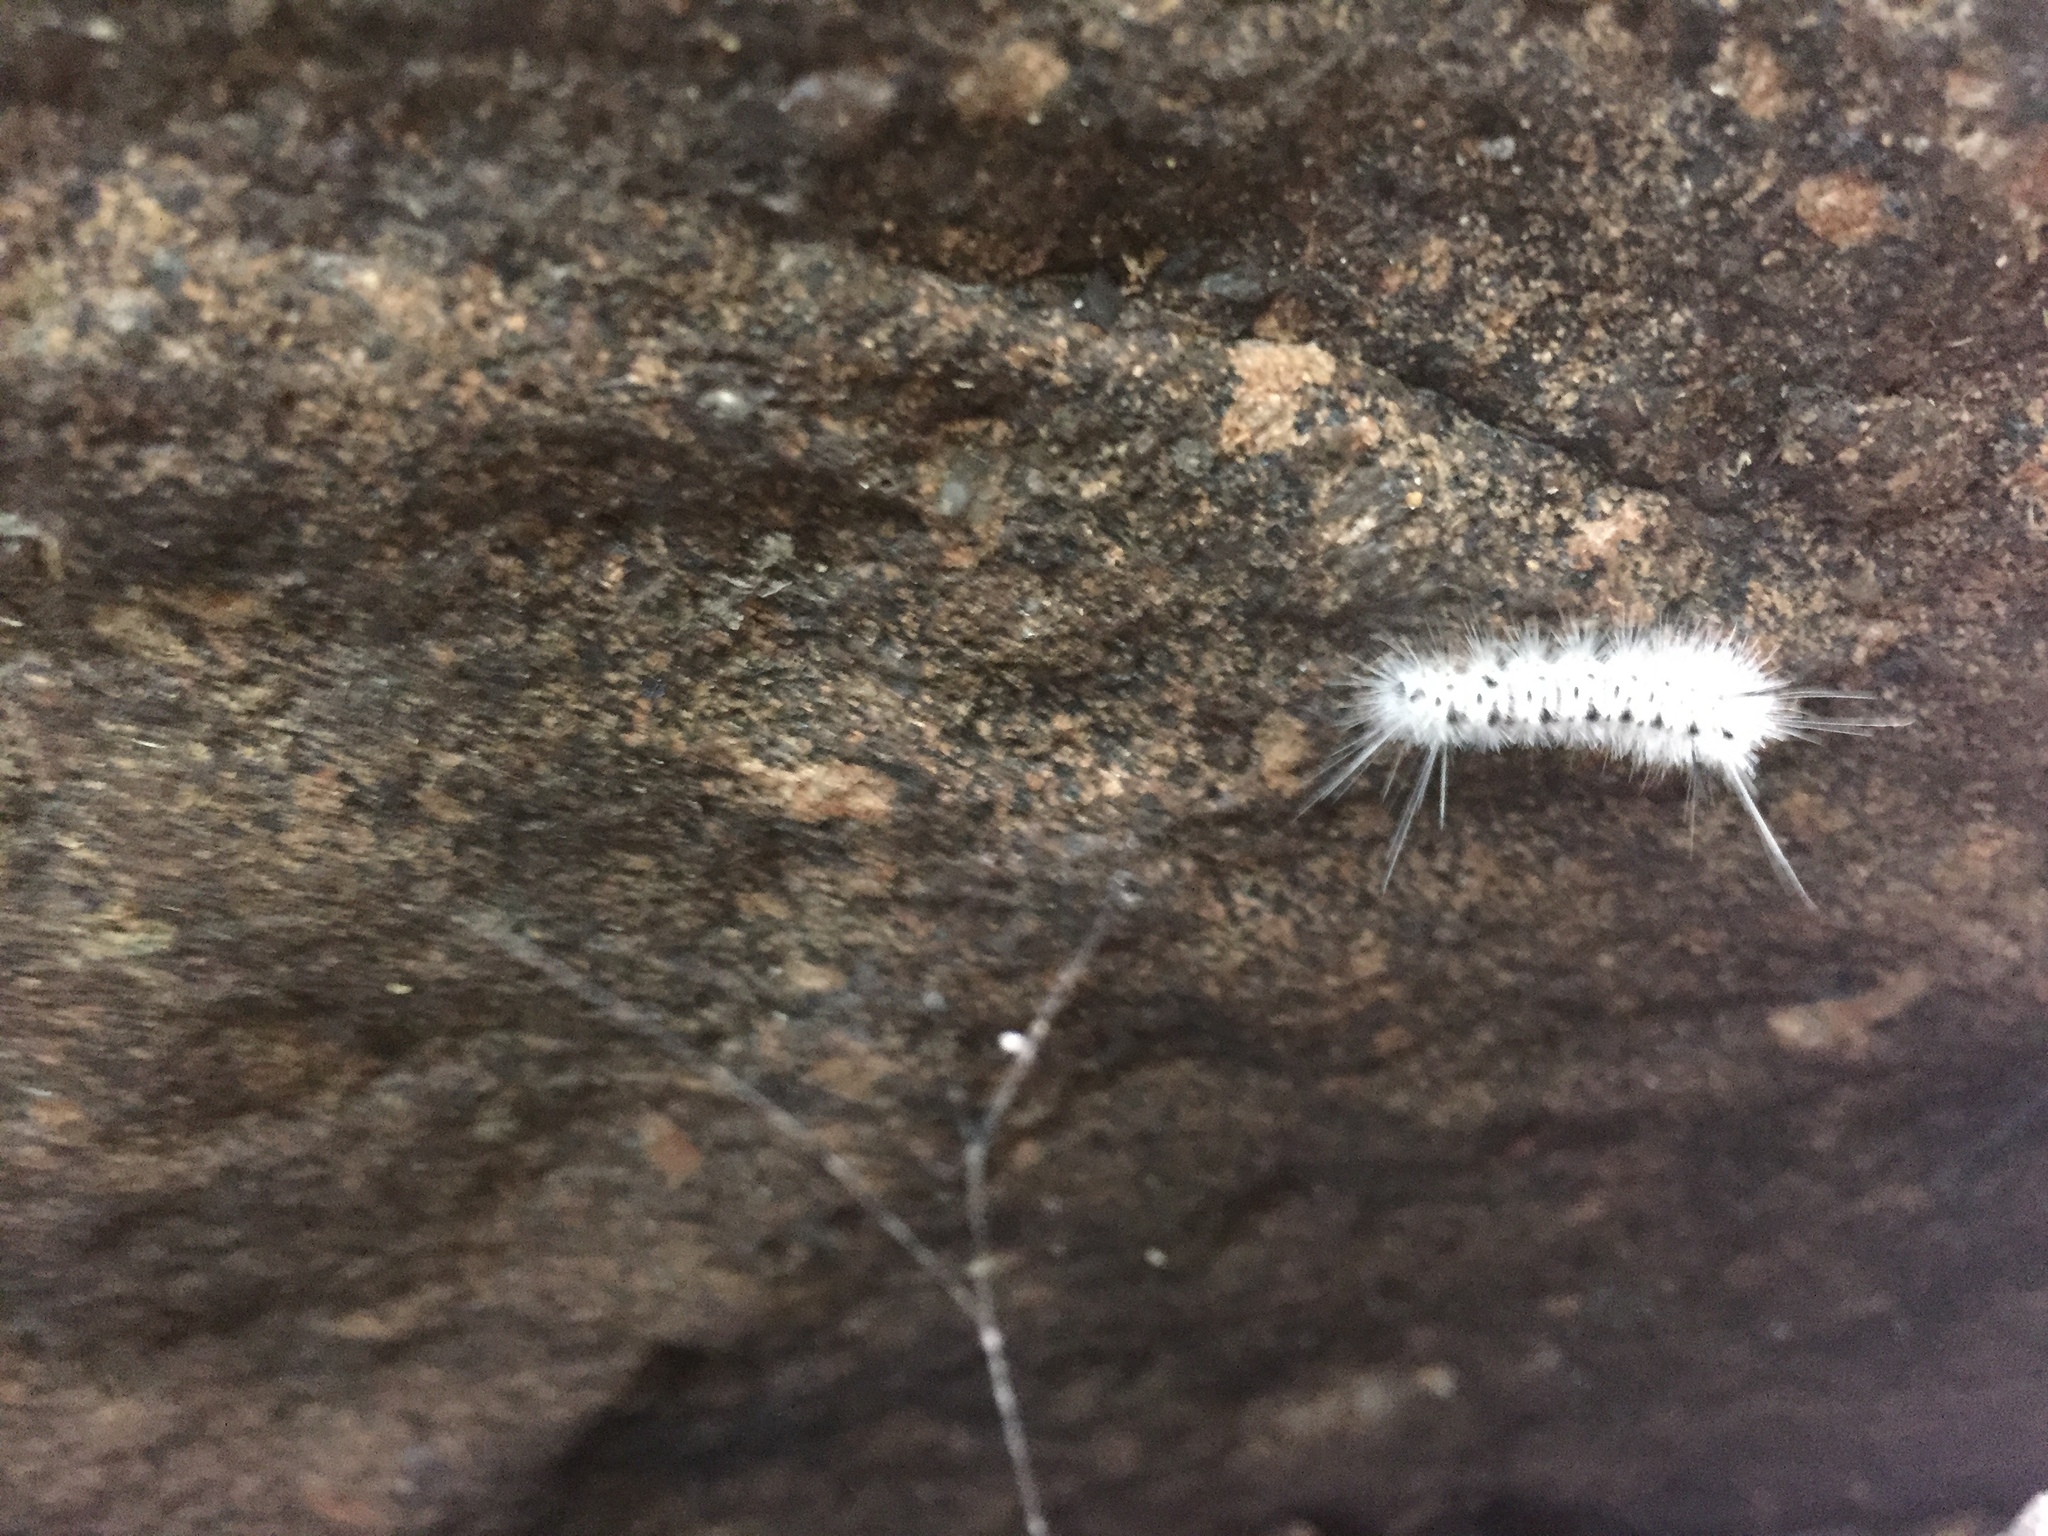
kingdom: Animalia
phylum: Arthropoda
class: Insecta
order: Lepidoptera
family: Erebidae
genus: Lophocampa
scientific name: Lophocampa caryae
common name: Hickory tussock moth
